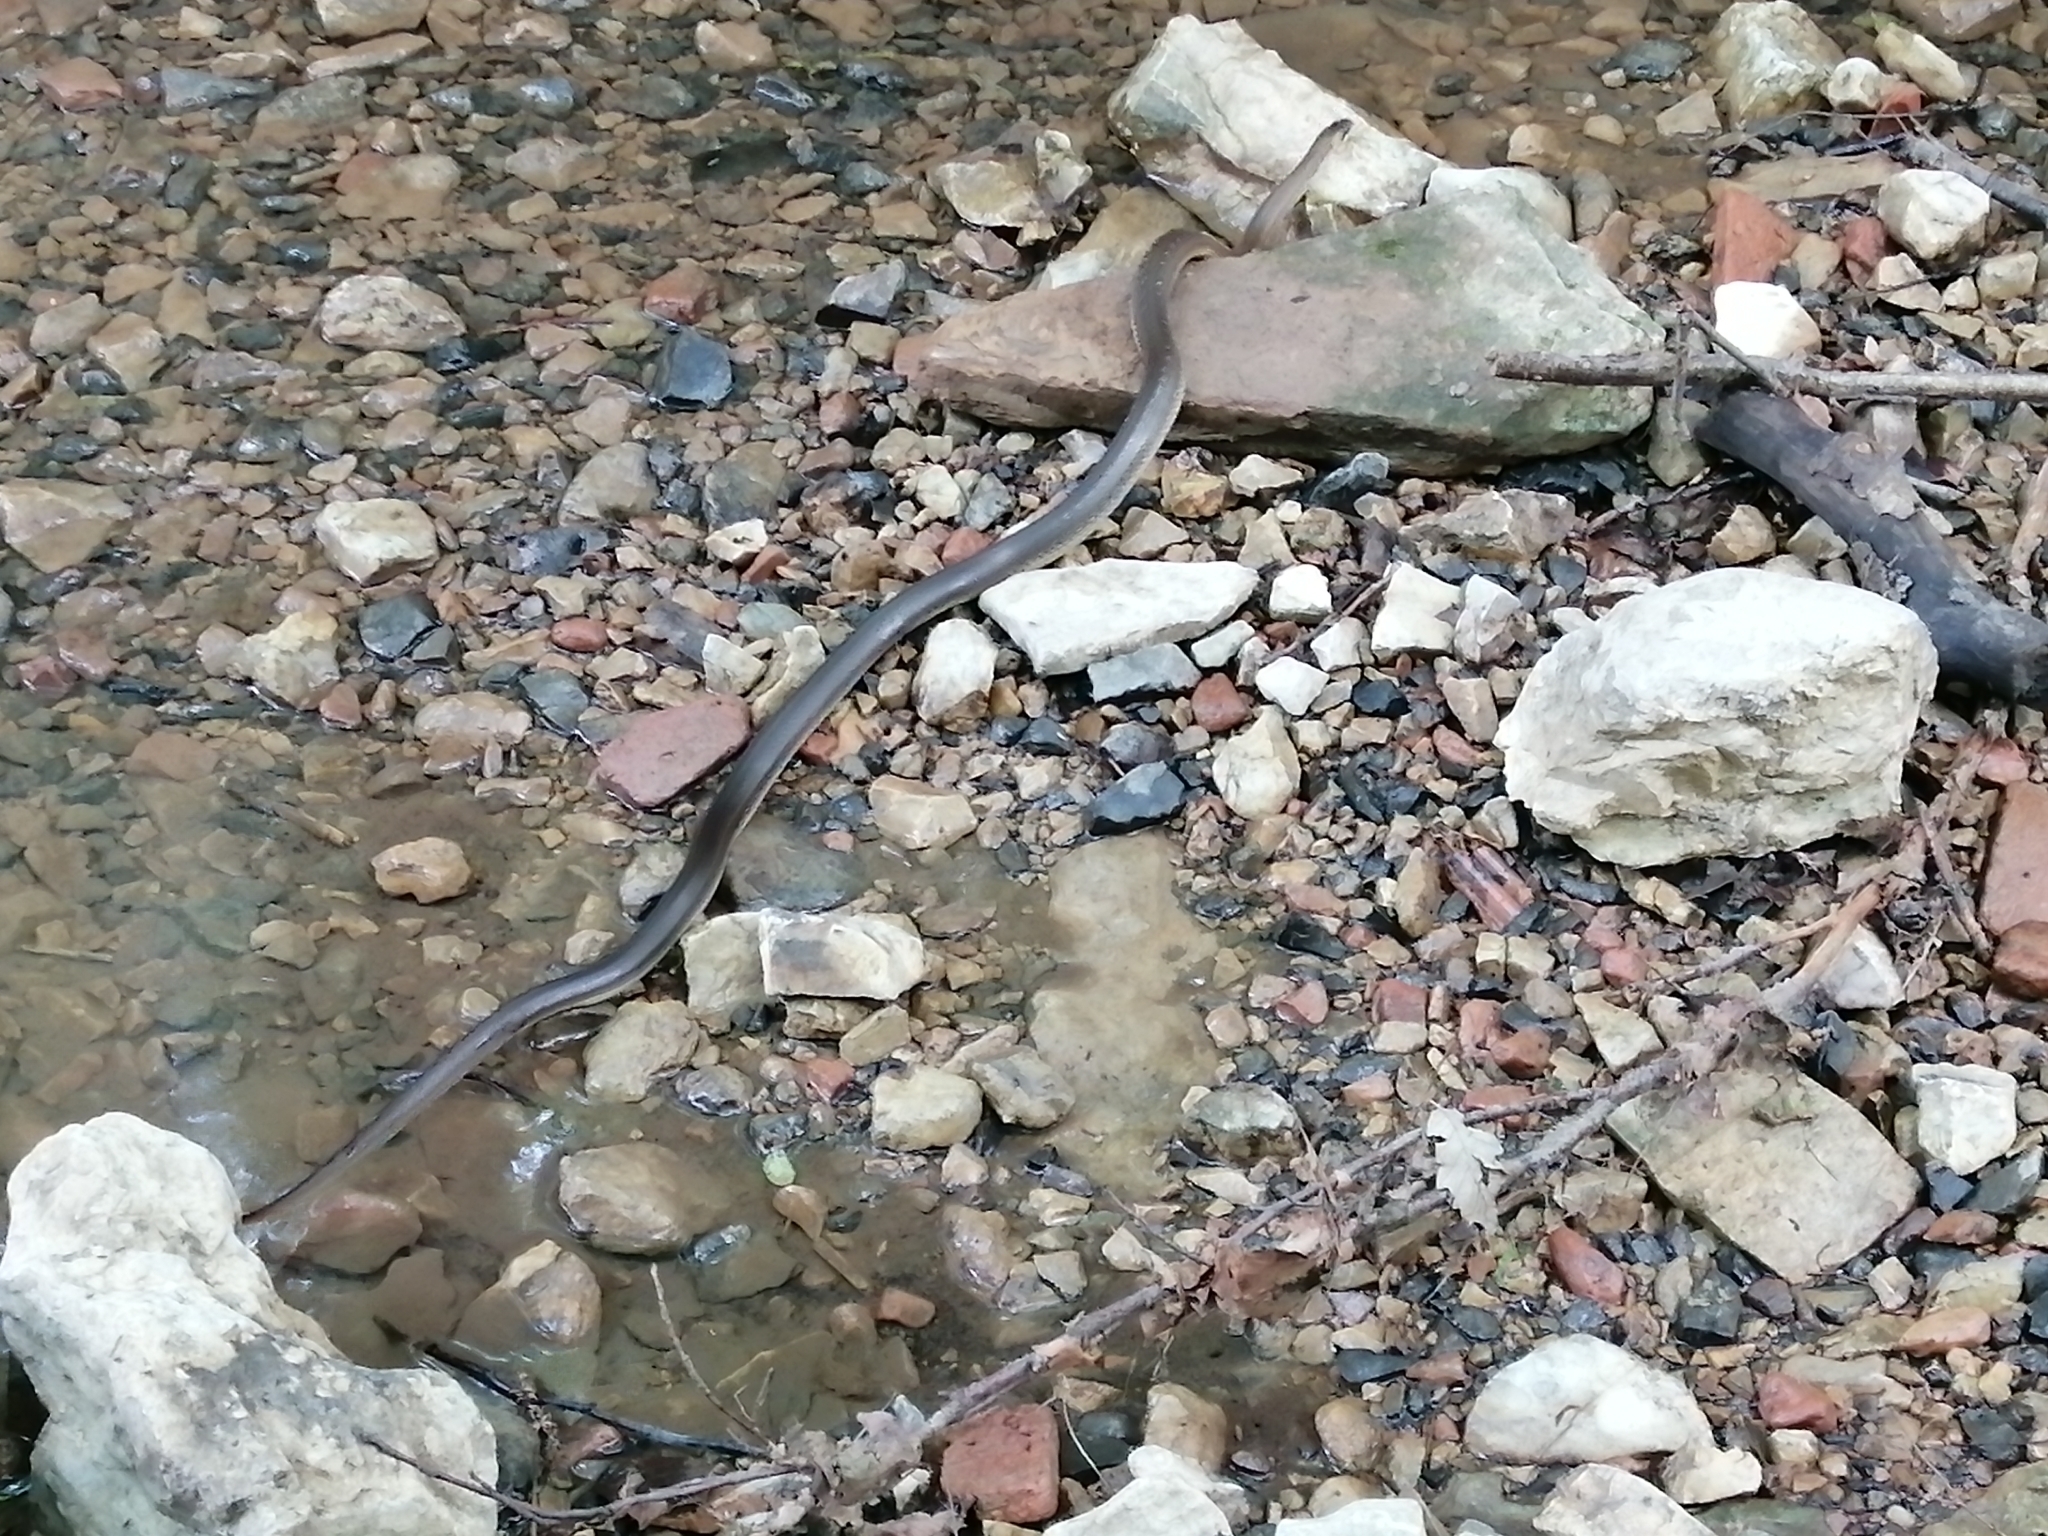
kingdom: Animalia
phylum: Chordata
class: Squamata
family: Colubridae
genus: Zamenis
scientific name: Zamenis longissimus
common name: Aesculapean snake
